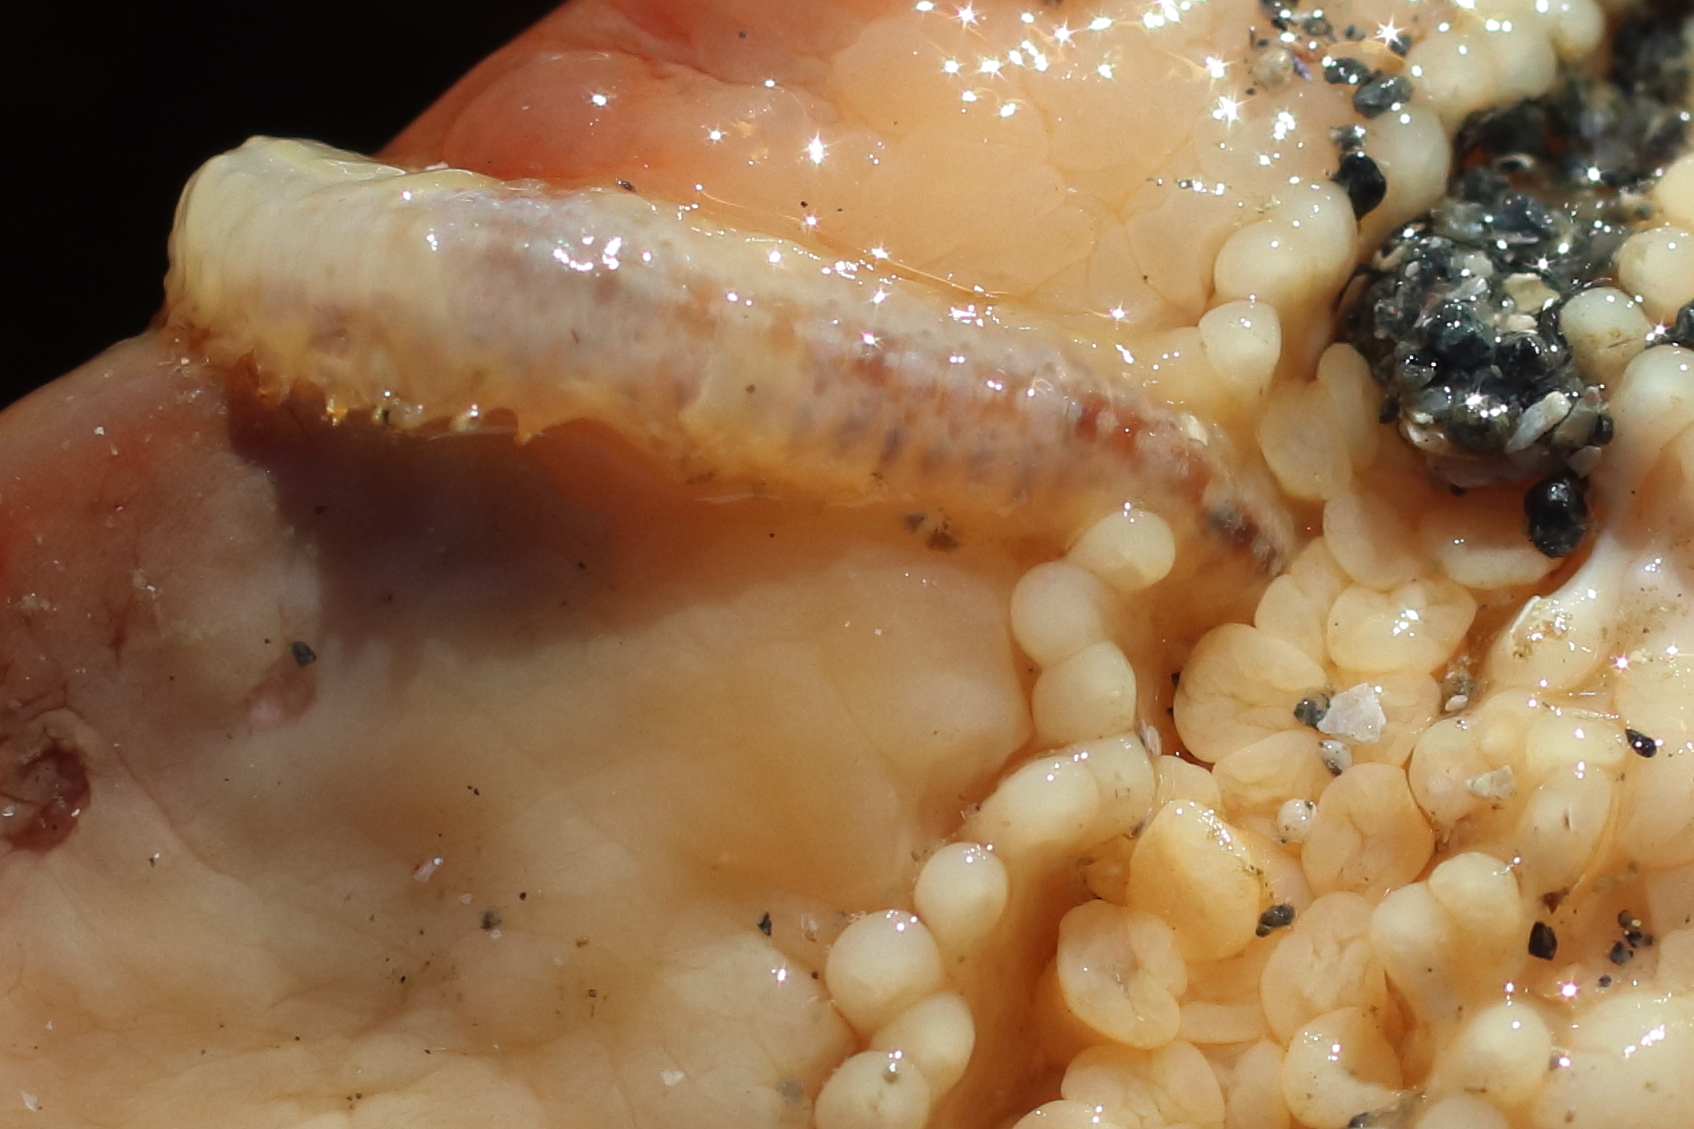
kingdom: Animalia
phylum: Annelida
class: Polychaeta
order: Phyllodocida
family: Polynoidae
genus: Arctonoe
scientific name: Arctonoe vittata
